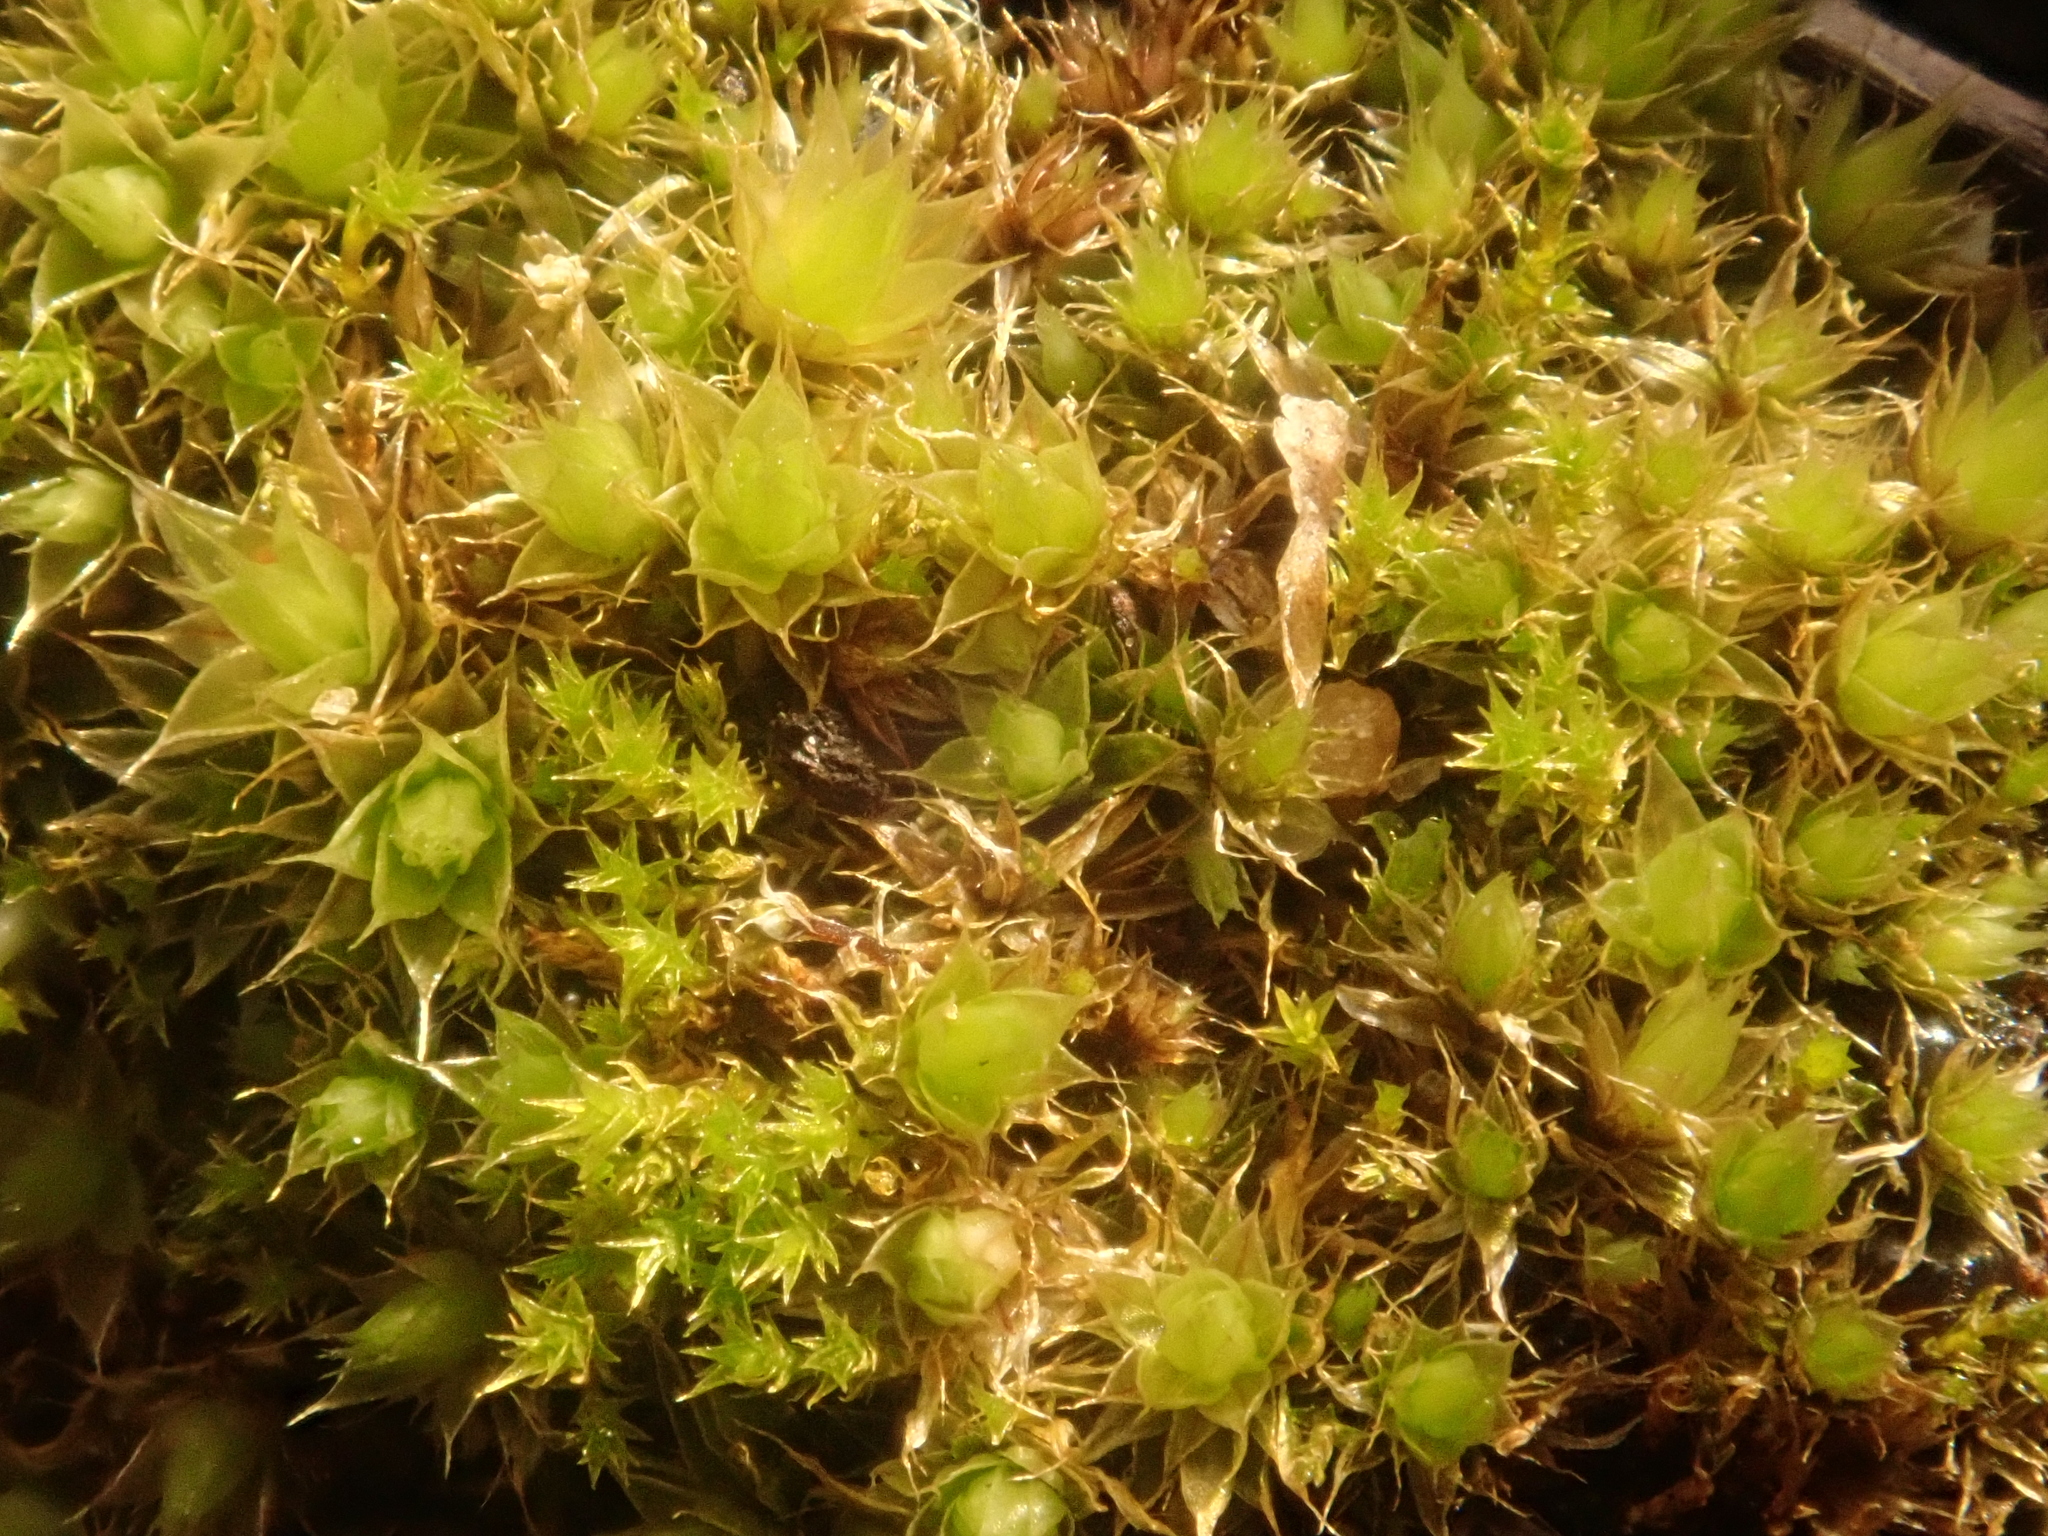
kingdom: Plantae
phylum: Bryophyta
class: Bryopsida
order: Bryales
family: Bryaceae
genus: Gemmabryum
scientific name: Gemmabryum caespiticium
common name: Handbell moss
